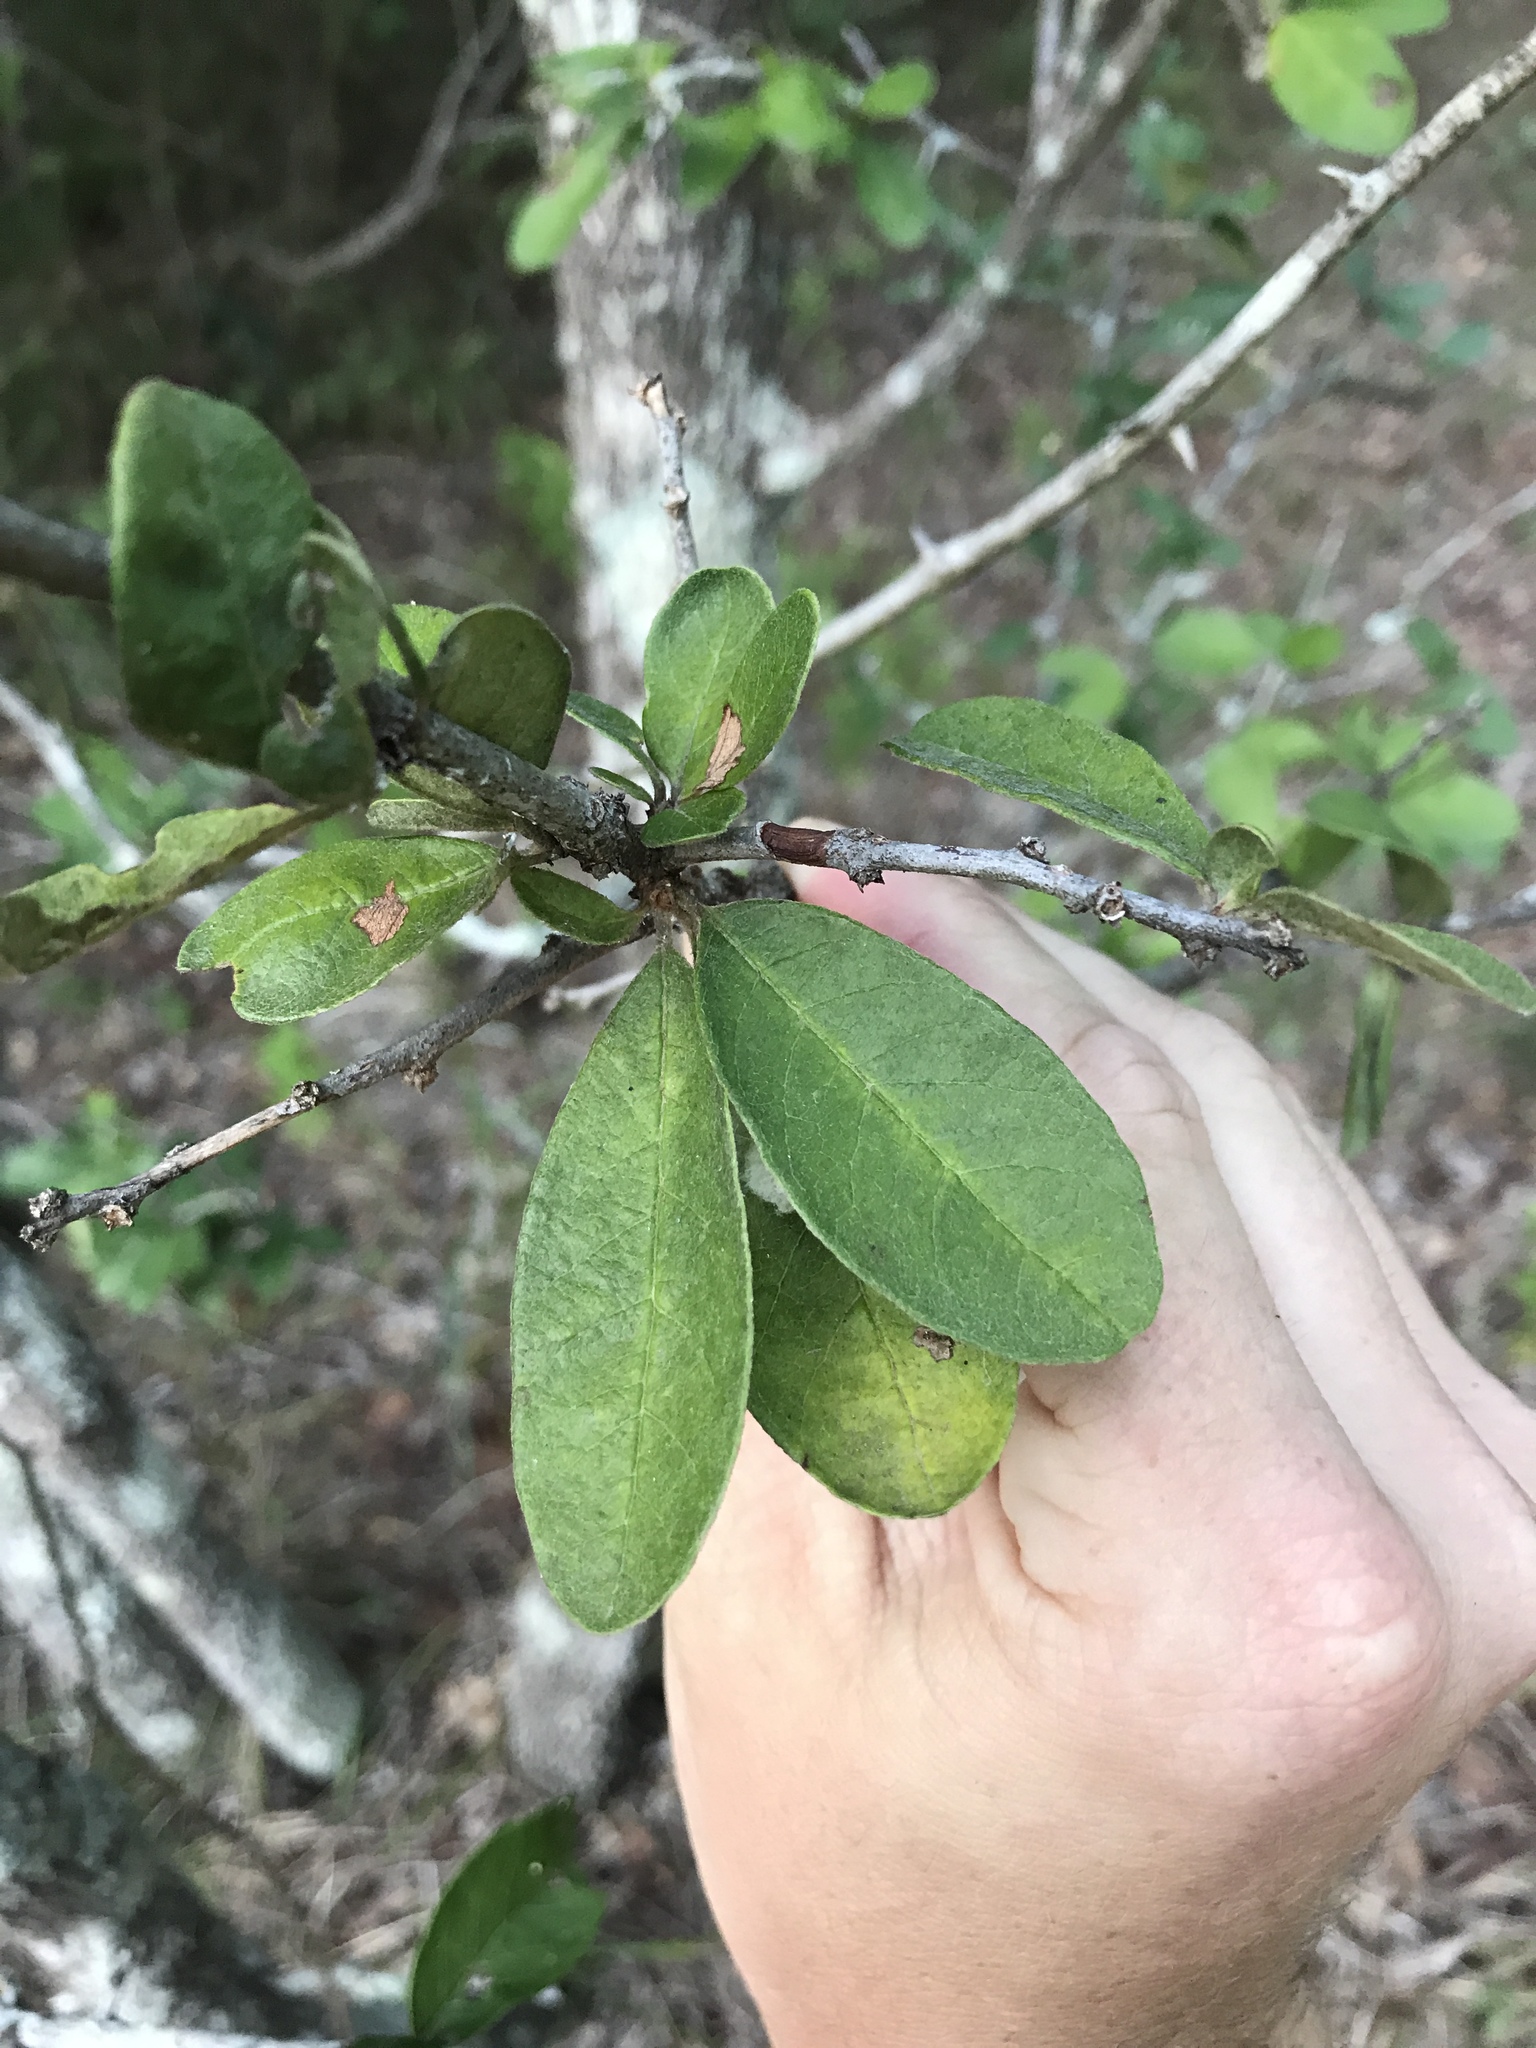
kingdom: Plantae
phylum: Tracheophyta
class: Magnoliopsida
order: Ericales
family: Sapotaceae
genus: Sideroxylon
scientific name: Sideroxylon lanuginosum
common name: Chittamwood
